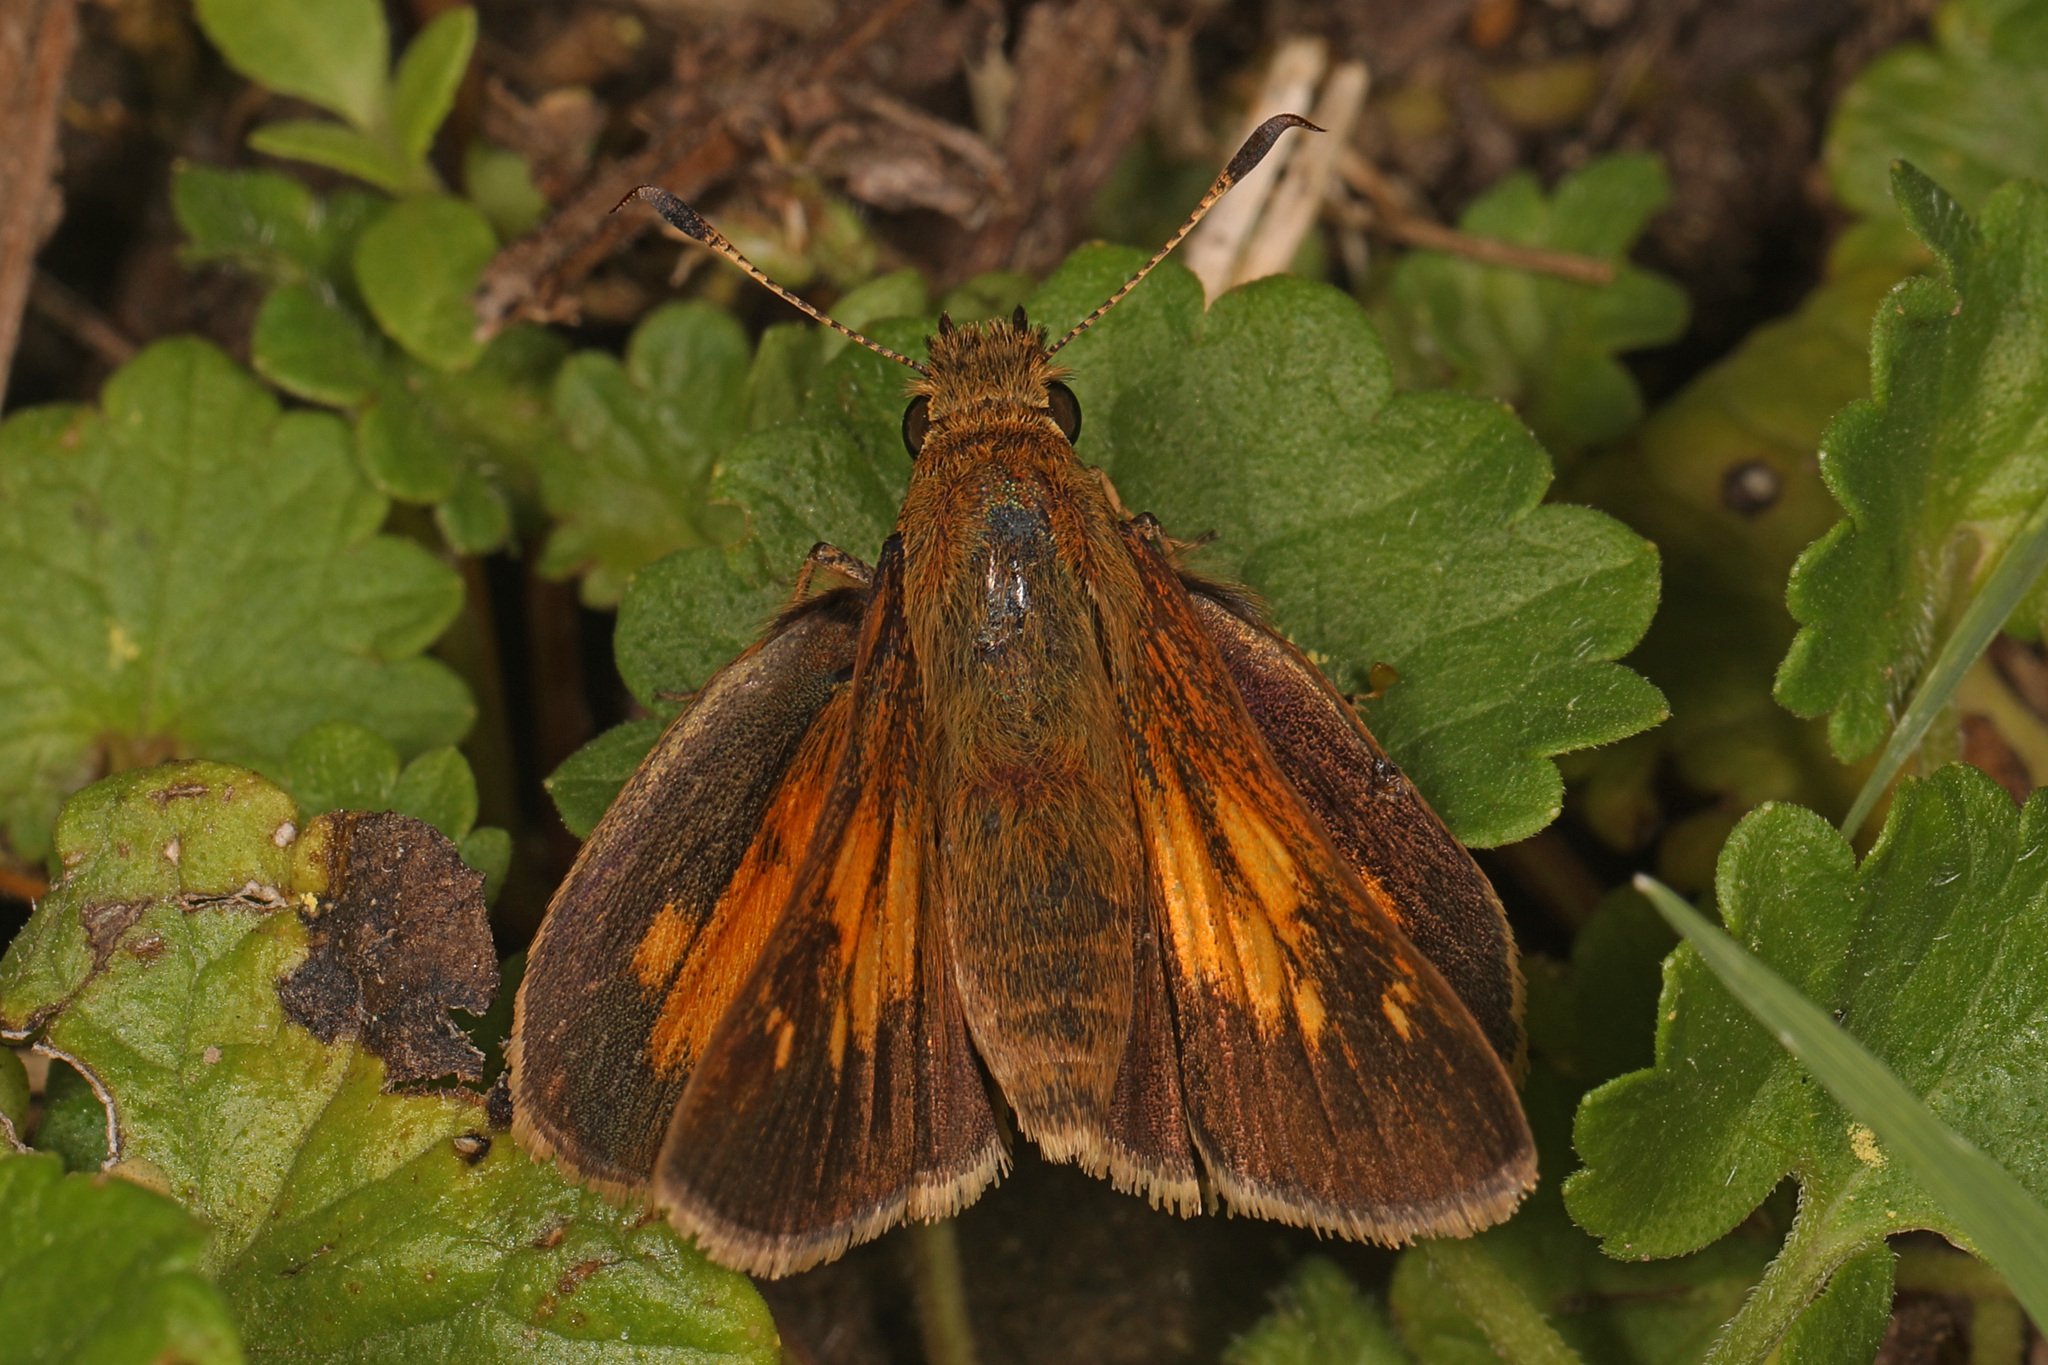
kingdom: Animalia
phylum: Arthropoda
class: Insecta
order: Lepidoptera
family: Hesperiidae
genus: Poanes
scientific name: Poanes aaroni
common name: Aaron's skipper
